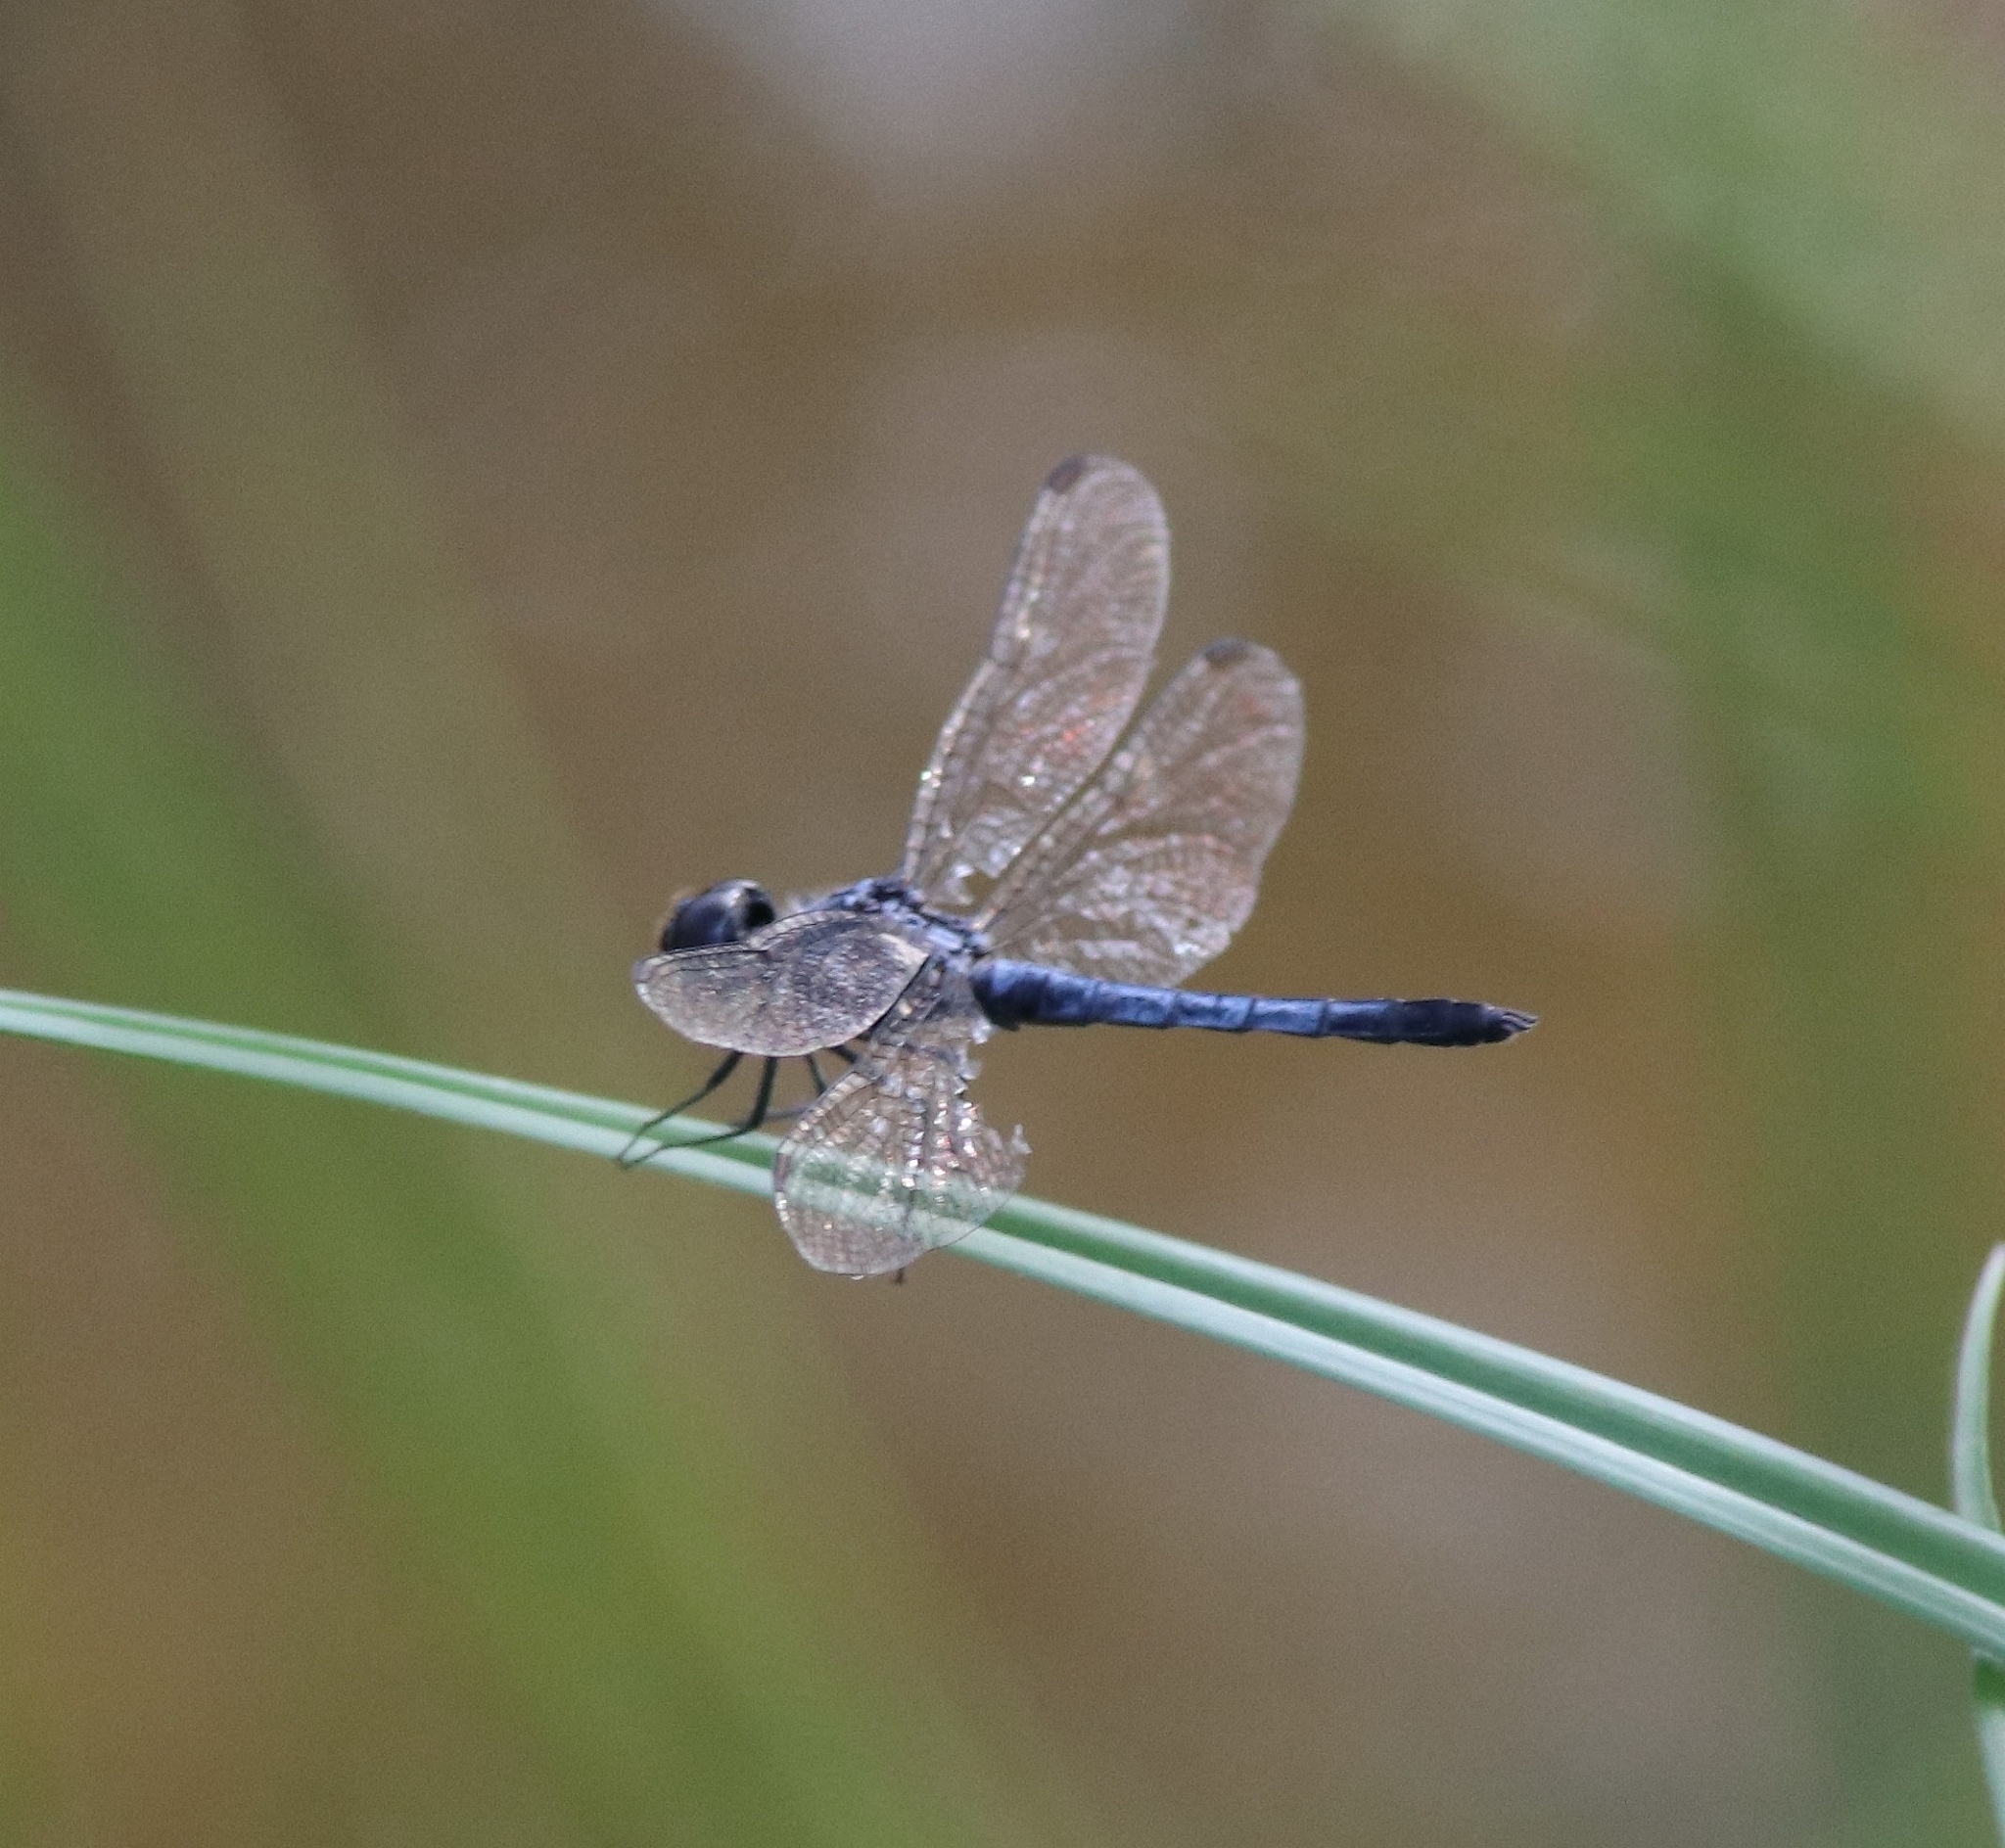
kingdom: Animalia
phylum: Arthropoda
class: Insecta
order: Odonata
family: Libellulidae
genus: Brachydiplax
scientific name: Brachydiplax sobrina
